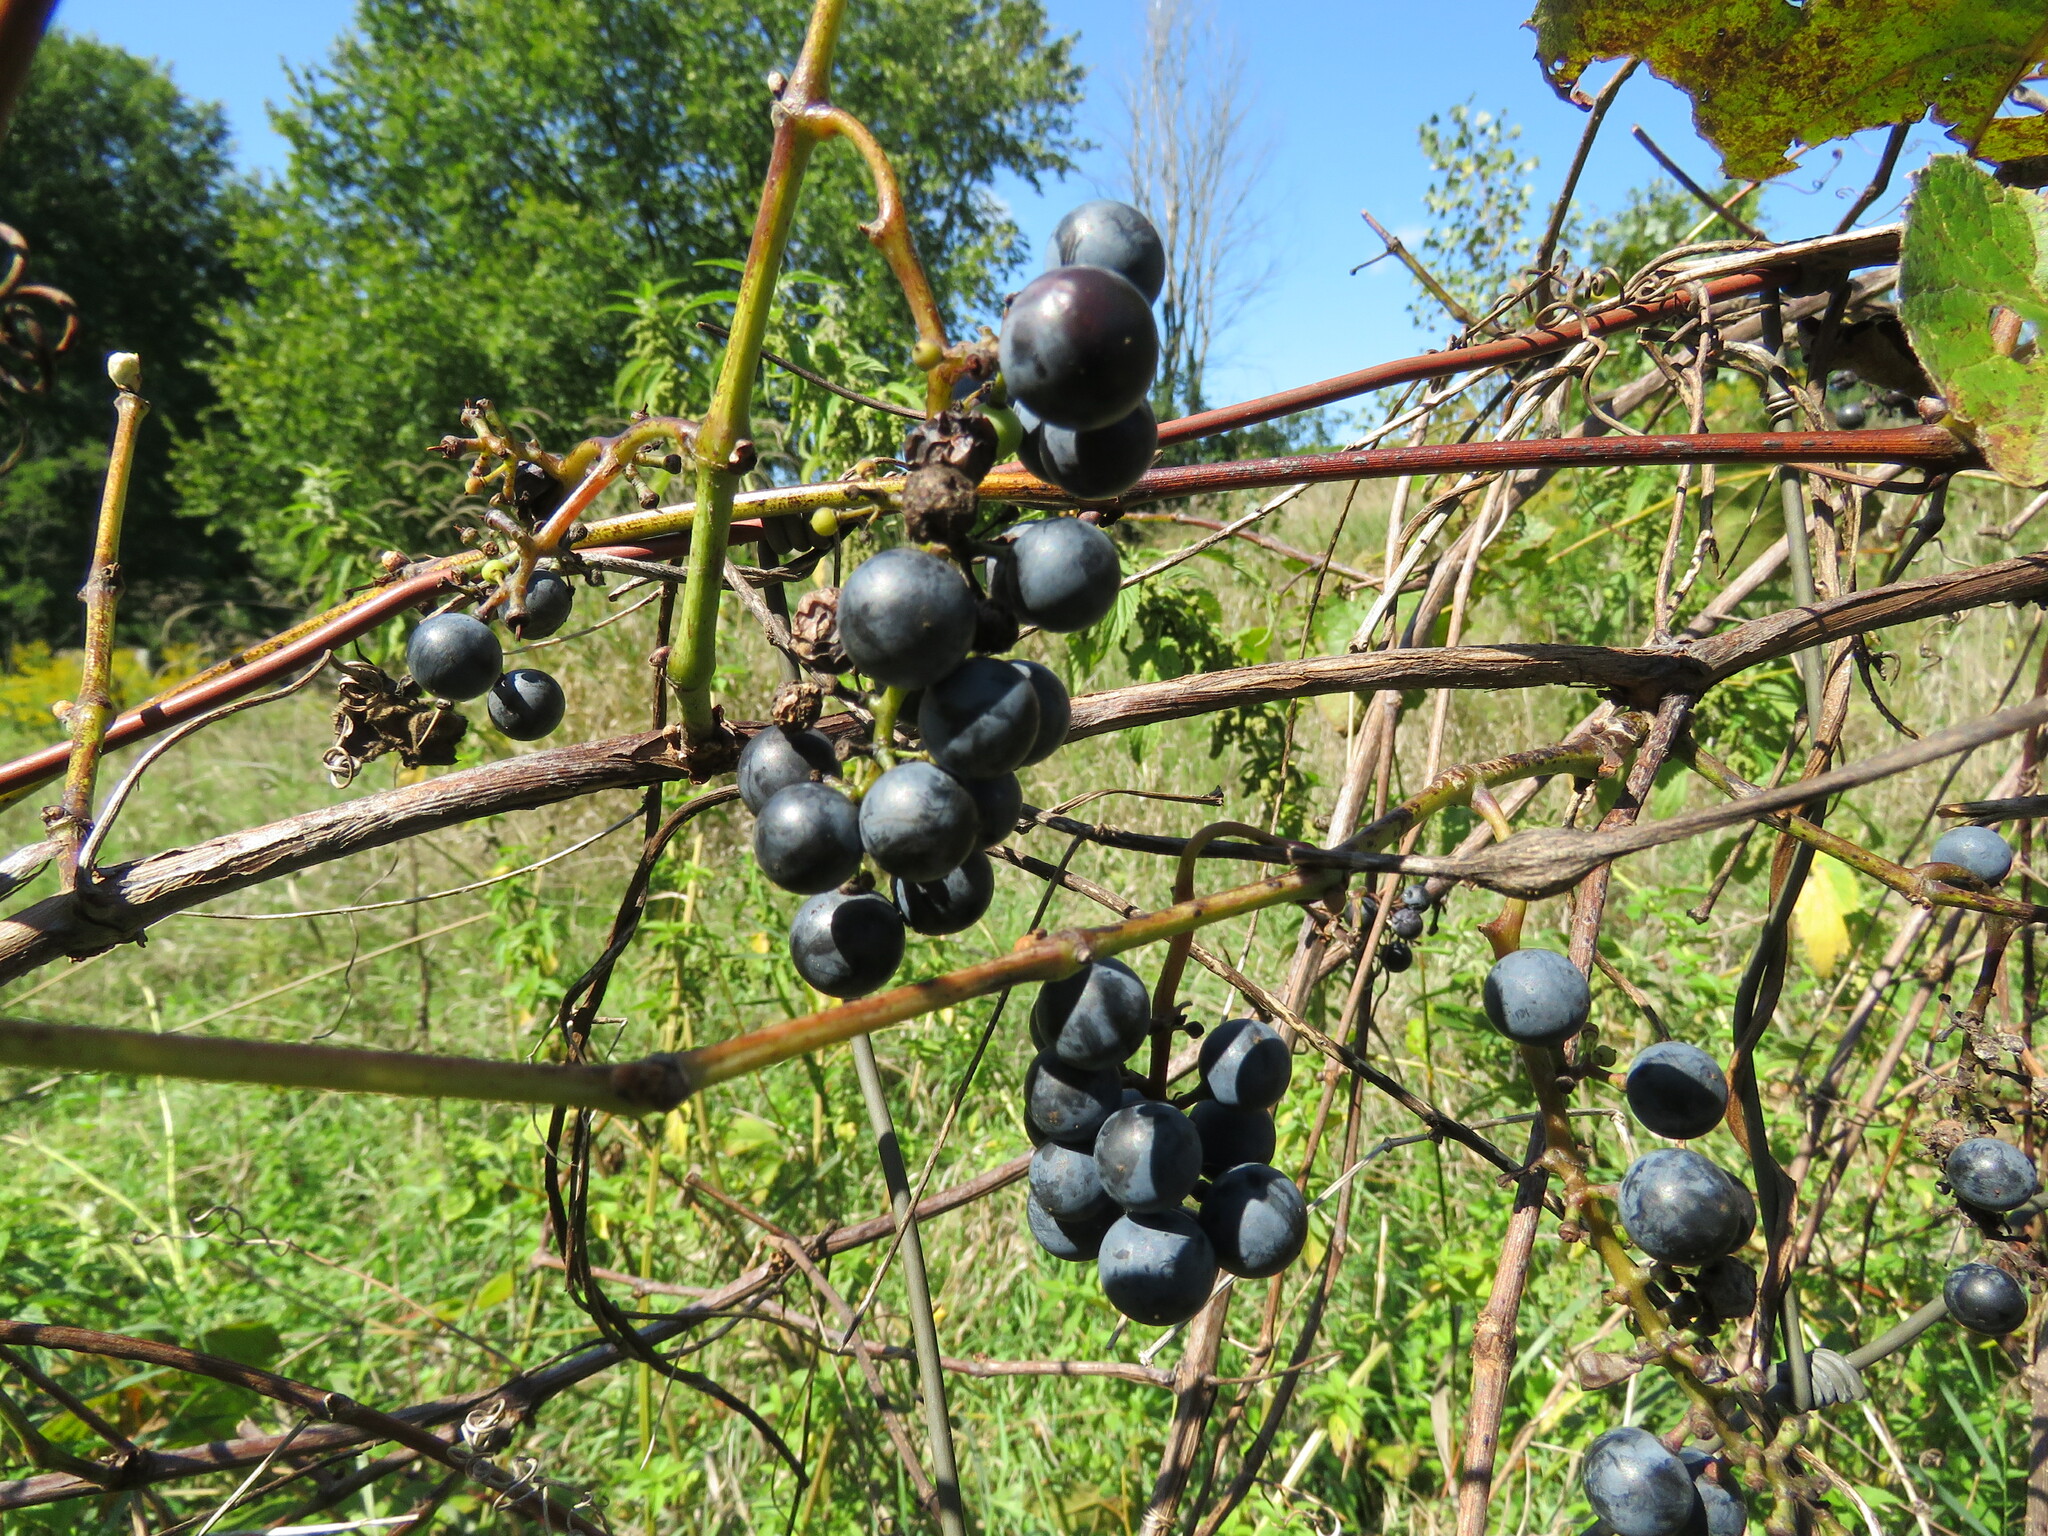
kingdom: Plantae
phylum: Tracheophyta
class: Magnoliopsida
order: Vitales
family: Vitaceae
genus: Vitis
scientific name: Vitis riparia
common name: Frost grape
